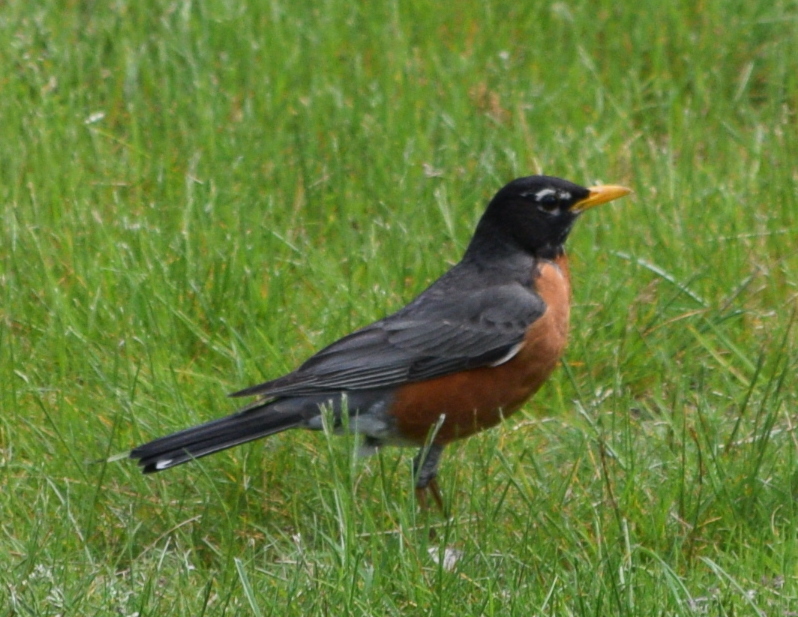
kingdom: Animalia
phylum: Chordata
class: Aves
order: Passeriformes
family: Turdidae
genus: Turdus
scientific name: Turdus migratorius
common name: American robin
